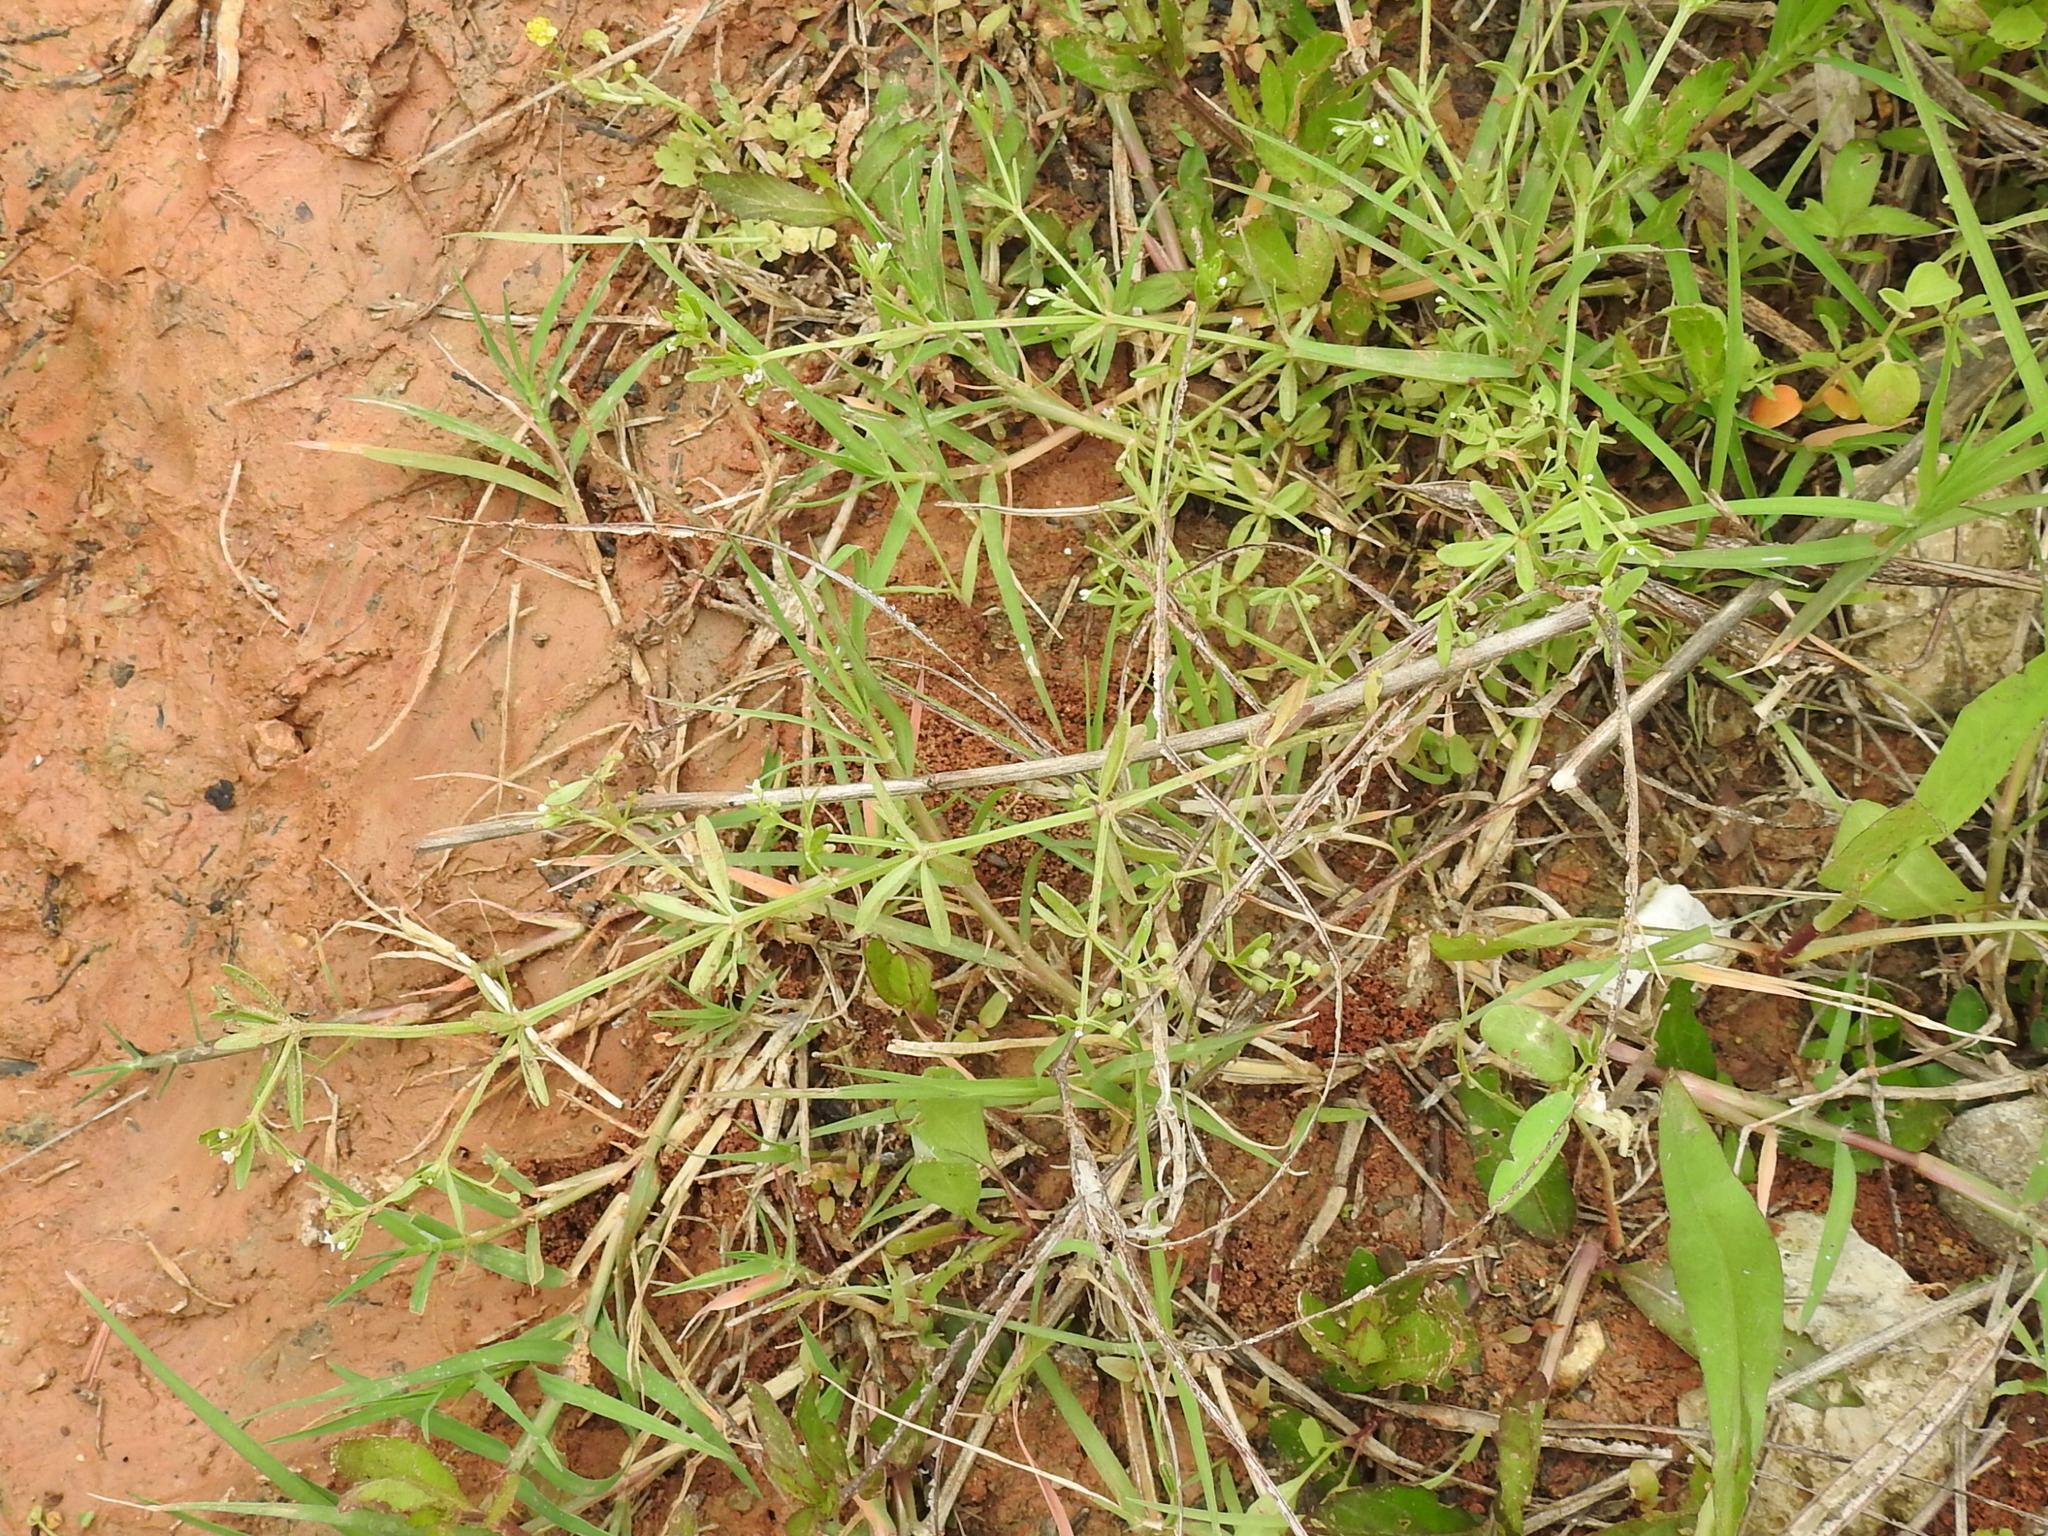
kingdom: Plantae
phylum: Tracheophyta
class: Magnoliopsida
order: Gentianales
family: Rubiaceae
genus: Galium
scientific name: Galium obtusum
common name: Blunt-leaved bedstraw
